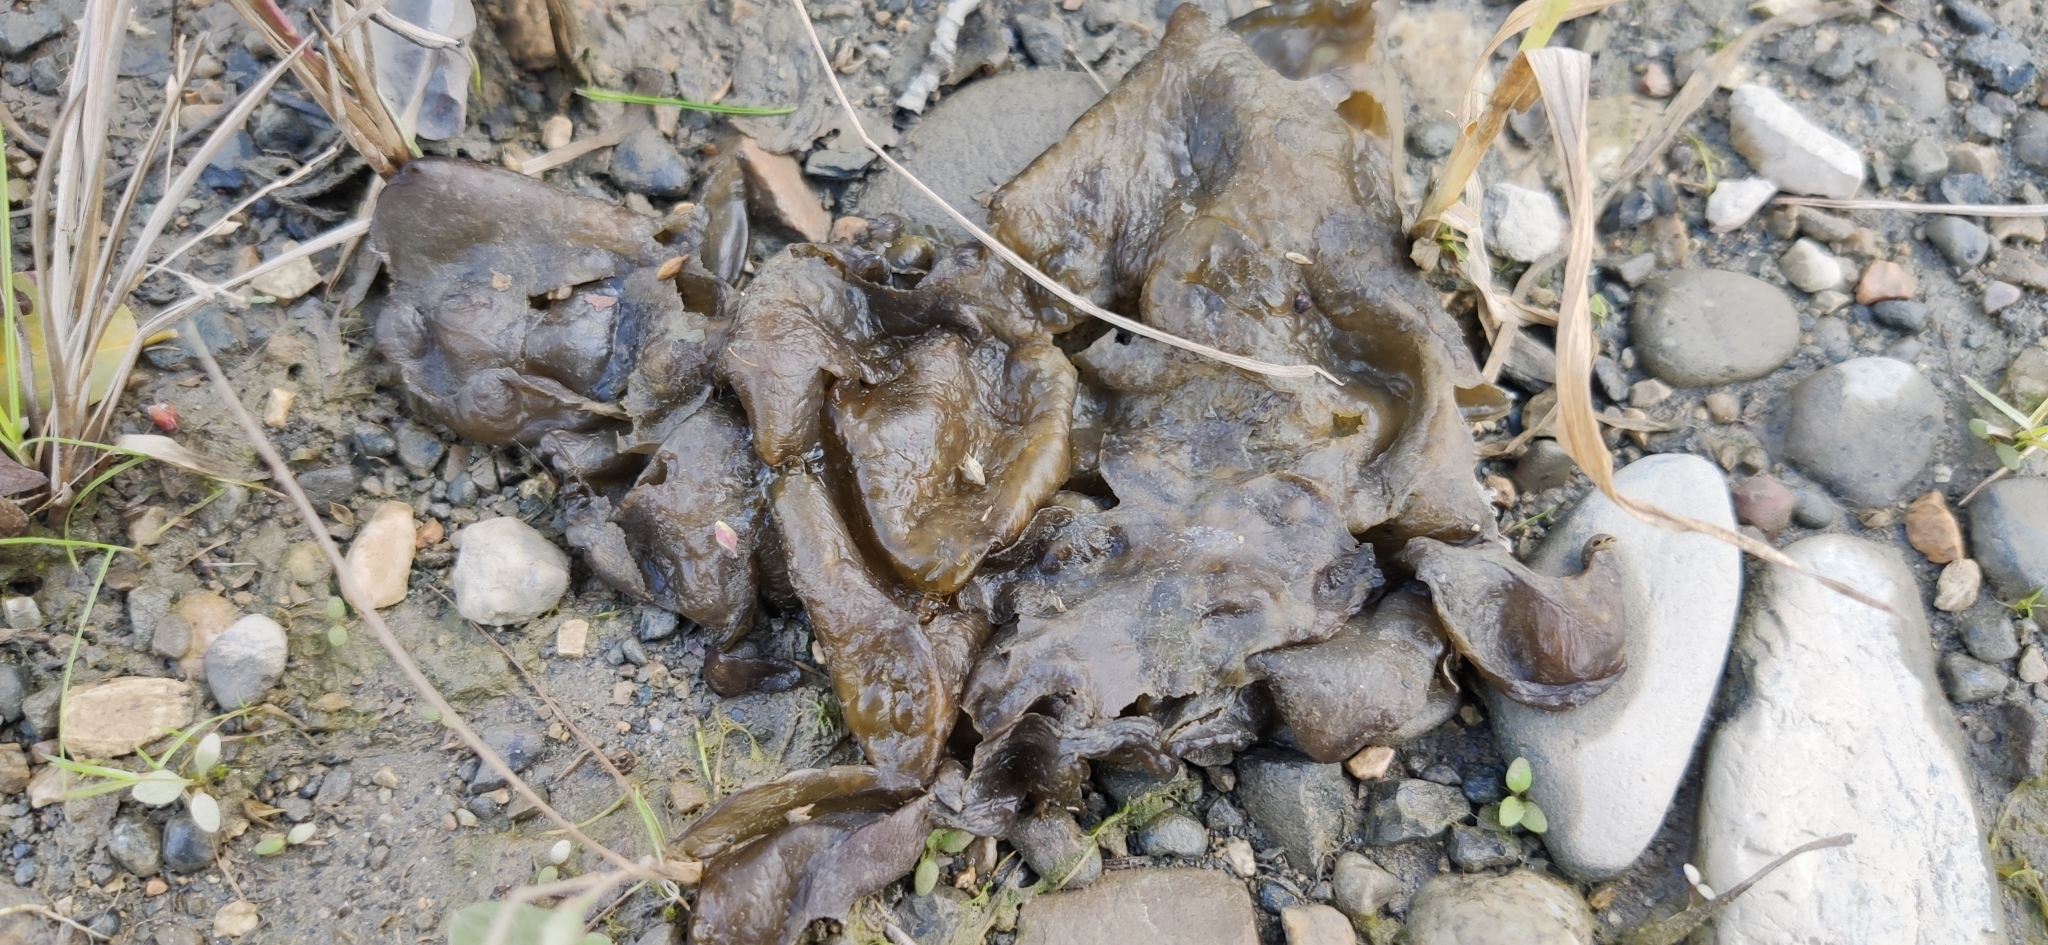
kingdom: Bacteria
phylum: Cyanobacteria
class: Cyanobacteriia
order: Cyanobacteriales
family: Nostocaceae
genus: Nostoc
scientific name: Nostoc commune
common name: Star jelly
